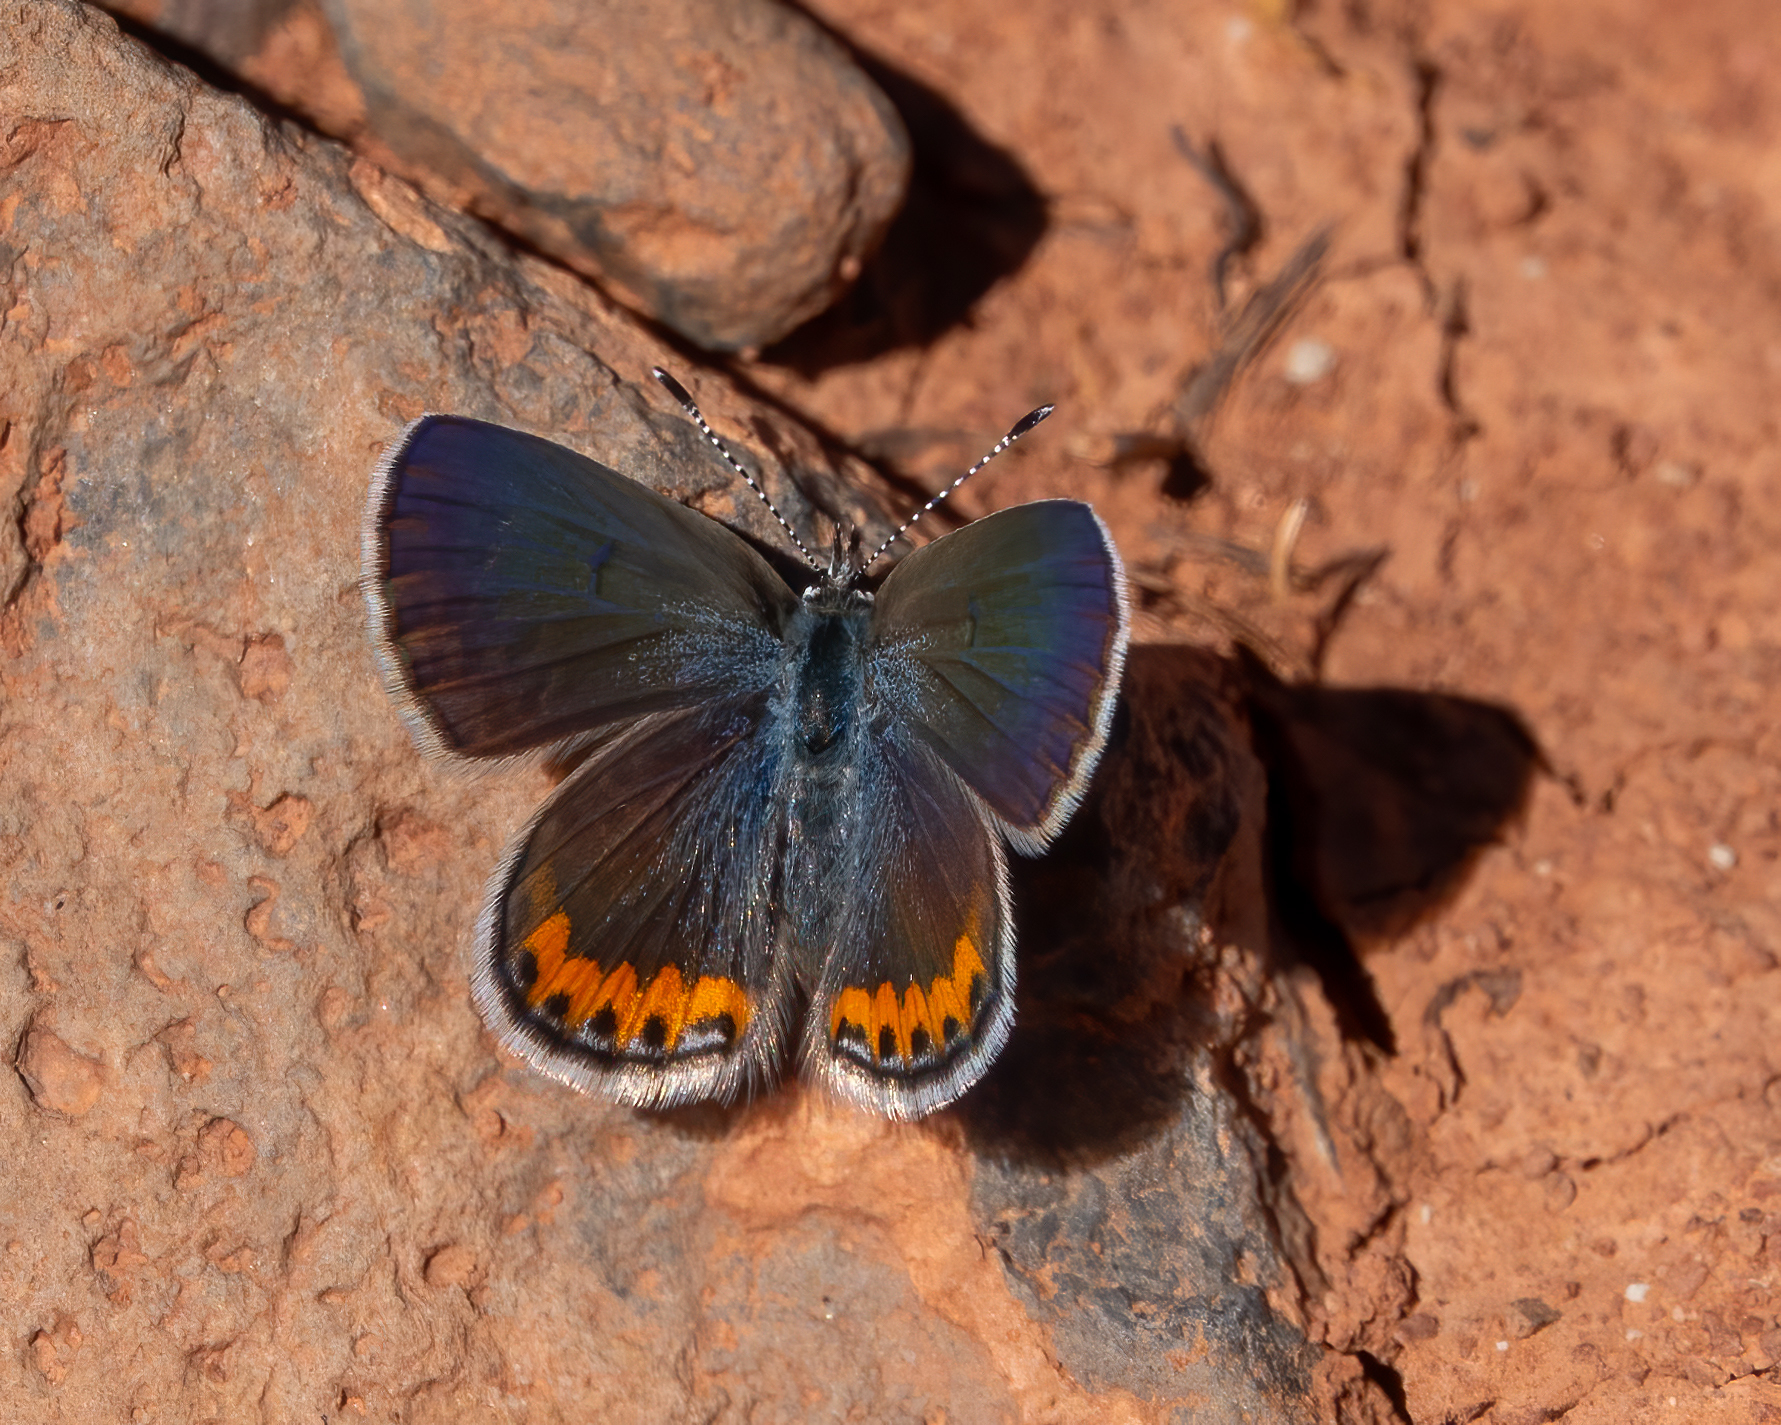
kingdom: Animalia
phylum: Arthropoda
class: Insecta
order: Lepidoptera
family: Lycaenidae
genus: Icaricia
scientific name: Icaricia lupini
